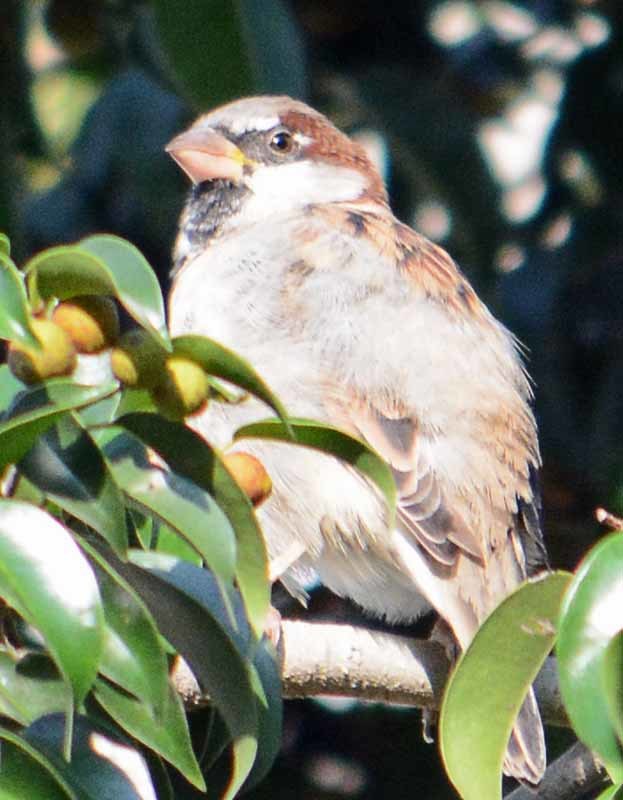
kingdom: Animalia
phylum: Chordata
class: Aves
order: Passeriformes
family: Passeridae
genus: Passer
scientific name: Passer domesticus
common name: House sparrow
